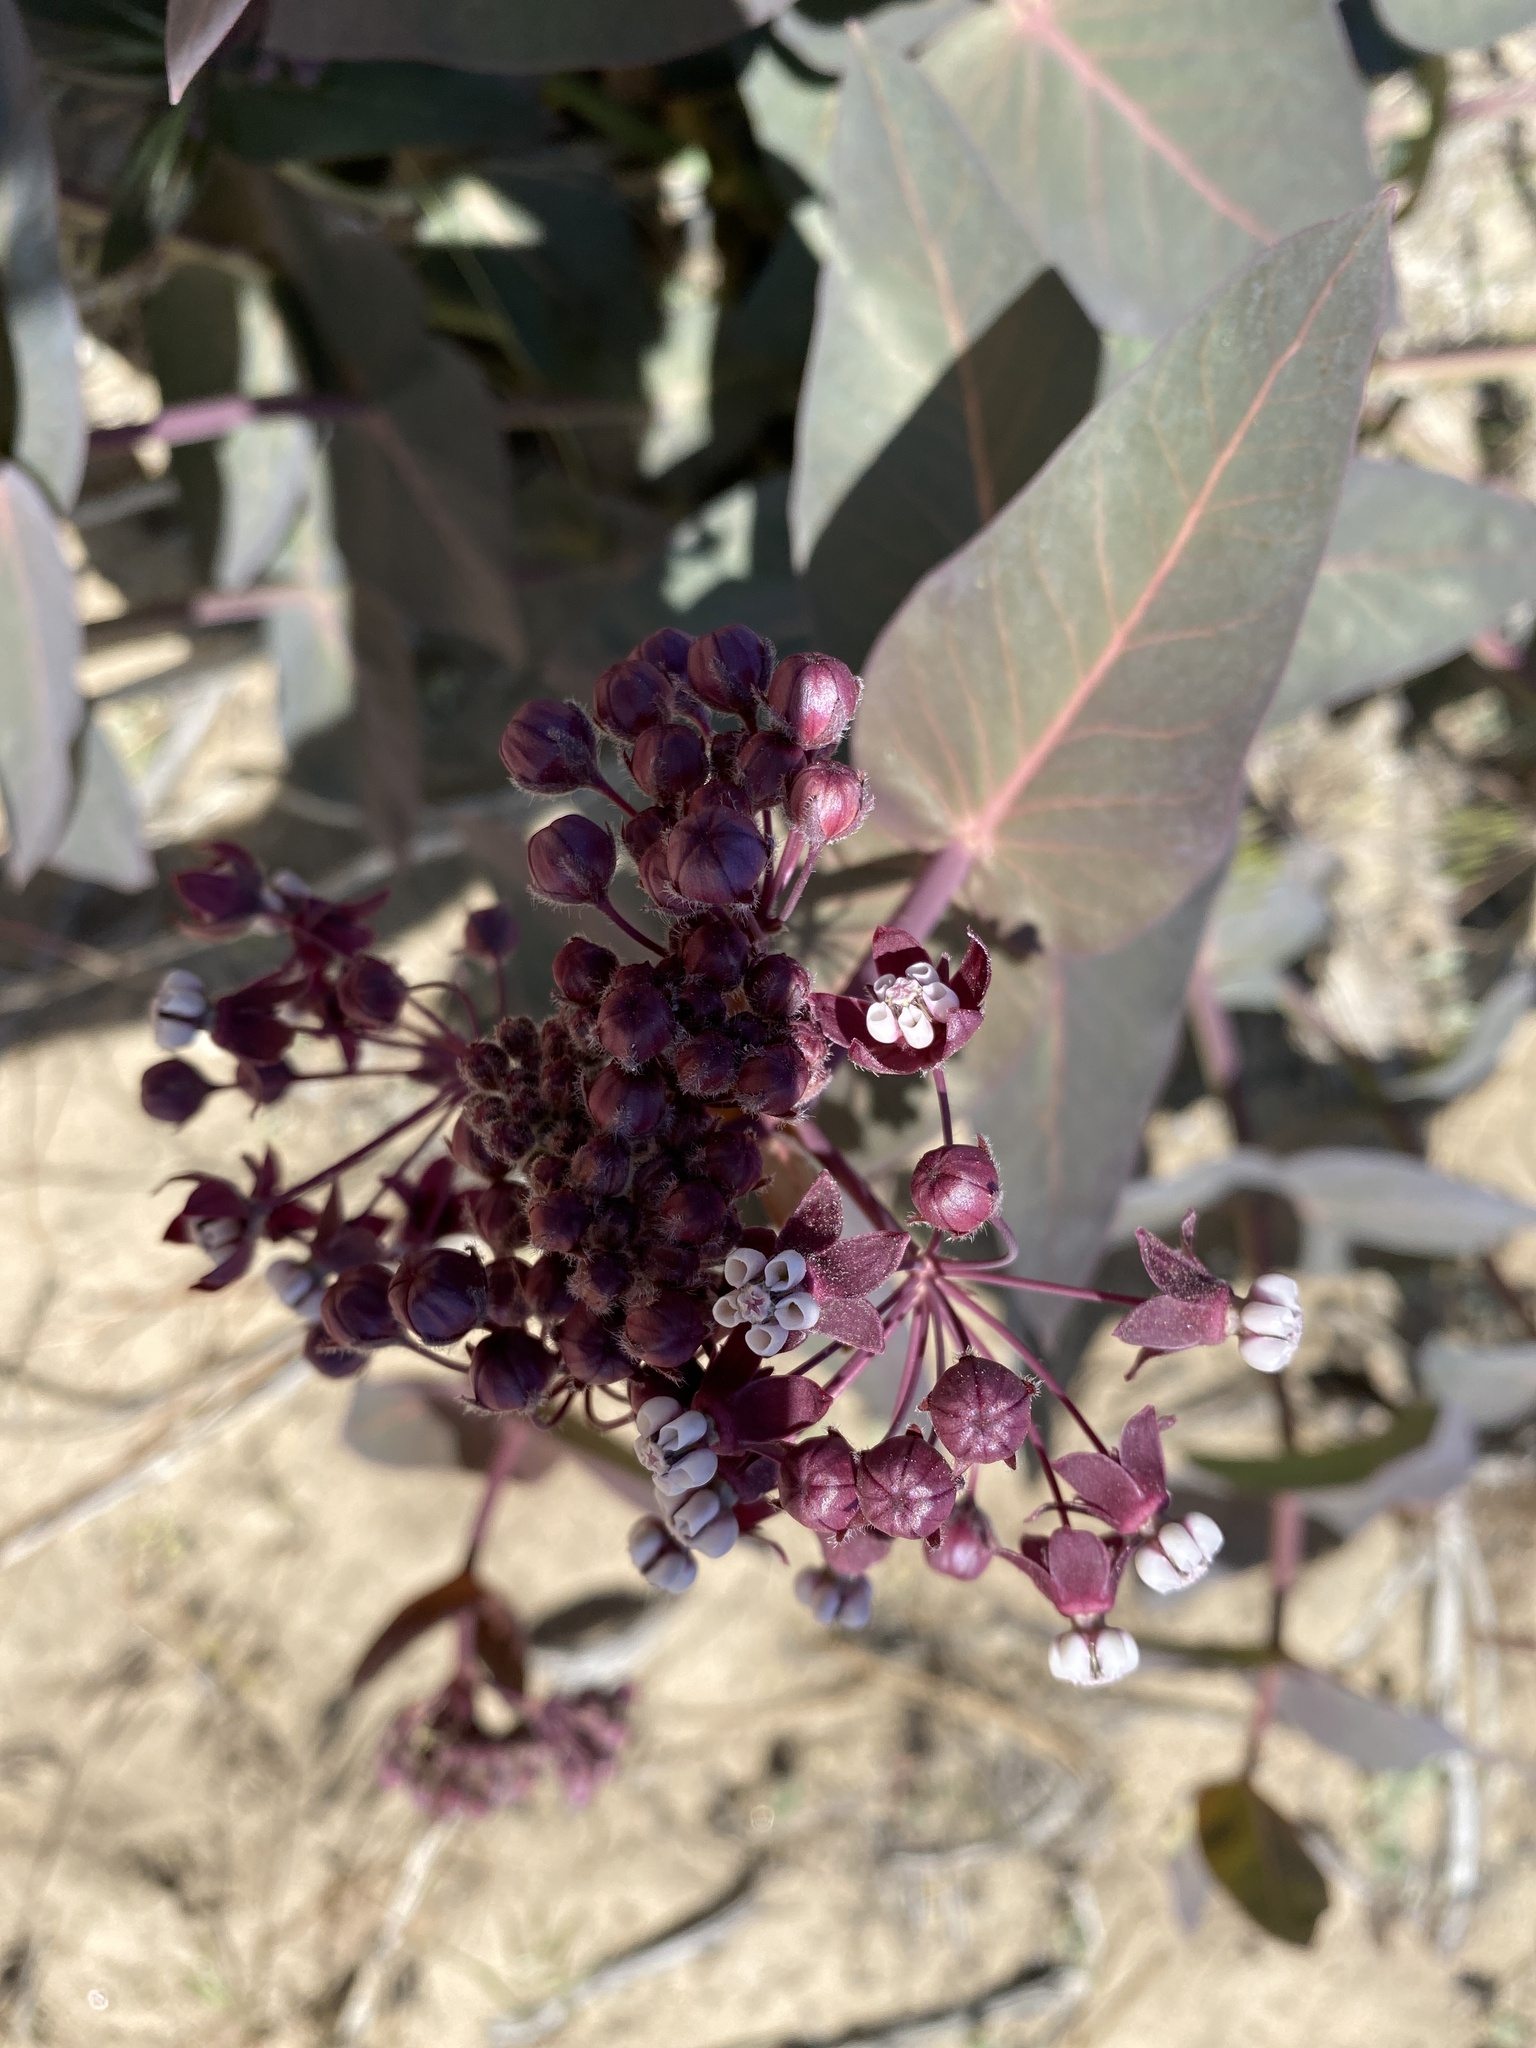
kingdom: Plantae
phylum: Tracheophyta
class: Magnoliopsida
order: Gentianales
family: Apocynaceae
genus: Asclepias
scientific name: Asclepias cordifolia
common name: Purple milkweed
